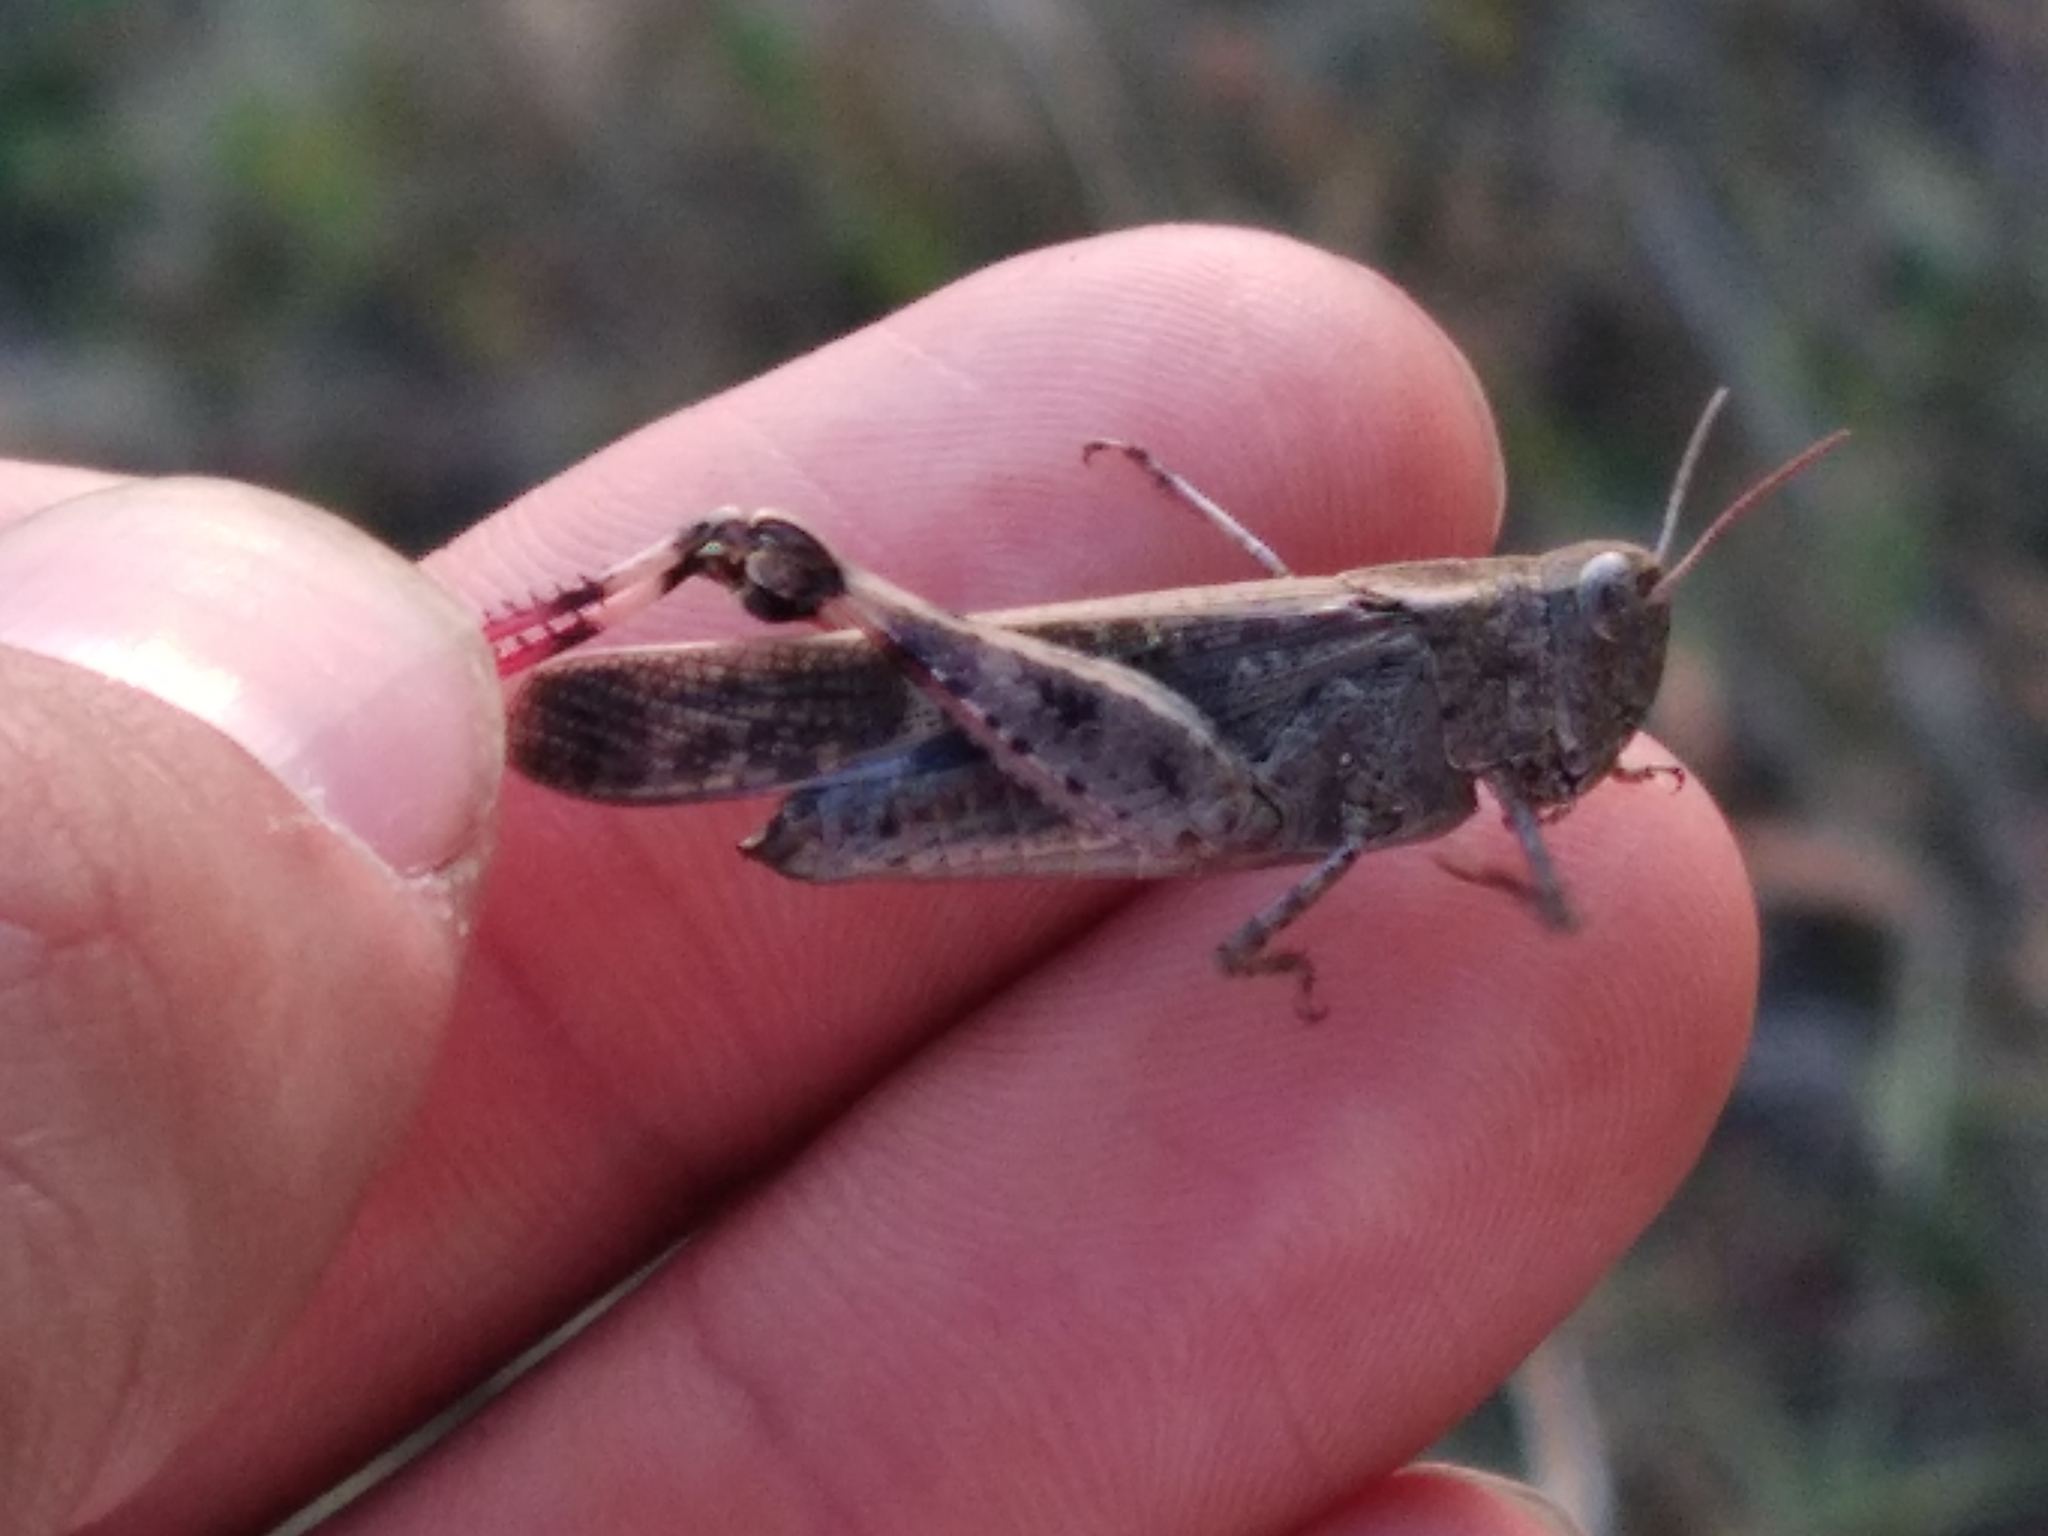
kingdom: Animalia
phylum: Arthropoda
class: Insecta
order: Orthoptera
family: Acrididae
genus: Aiolopus
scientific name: Aiolopus strepens
